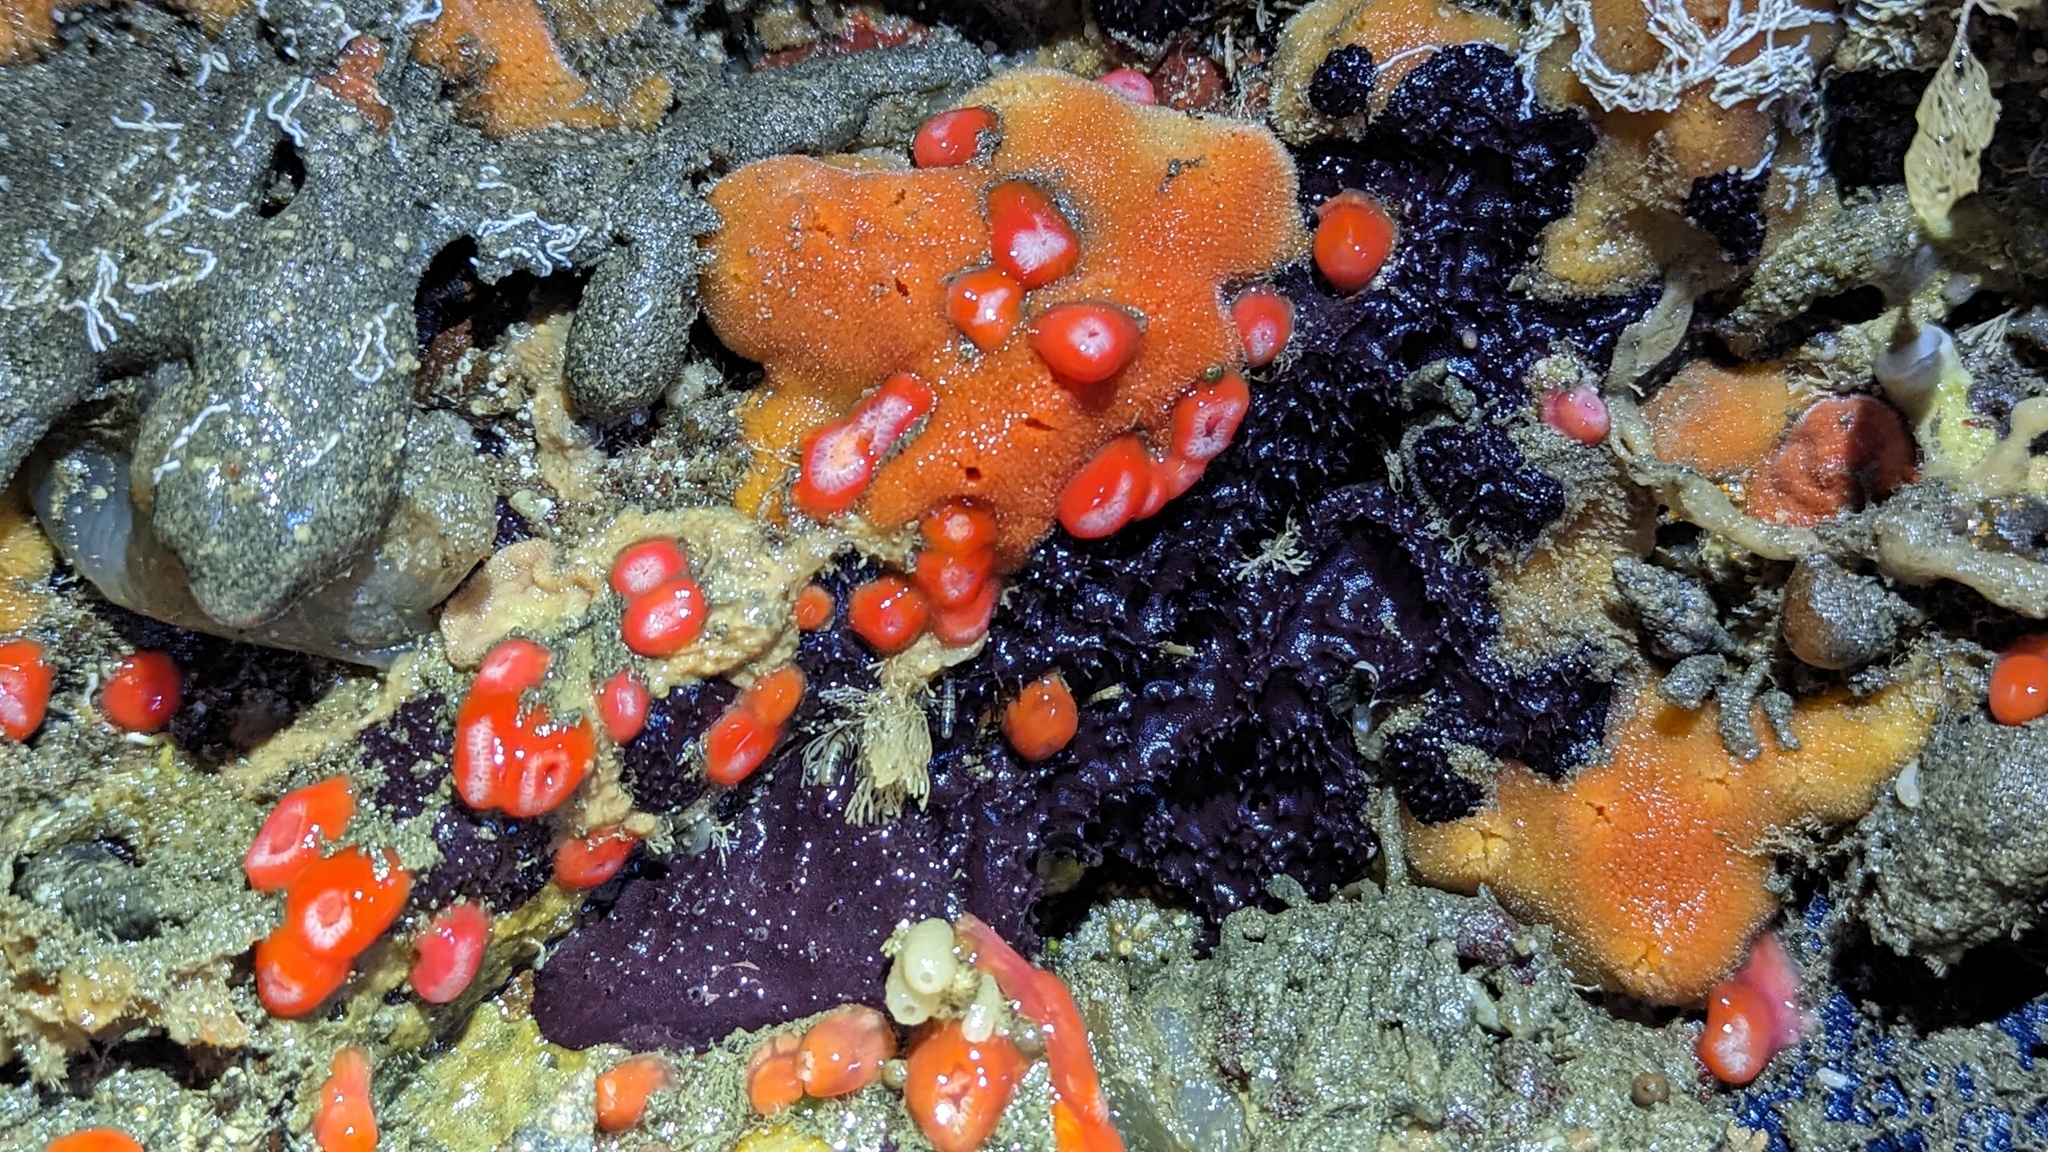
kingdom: Animalia
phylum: Porifera
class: Demospongiae
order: Dendroceratida
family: Darwinellidae
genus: Aplysilla
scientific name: Aplysilla polyraphis
